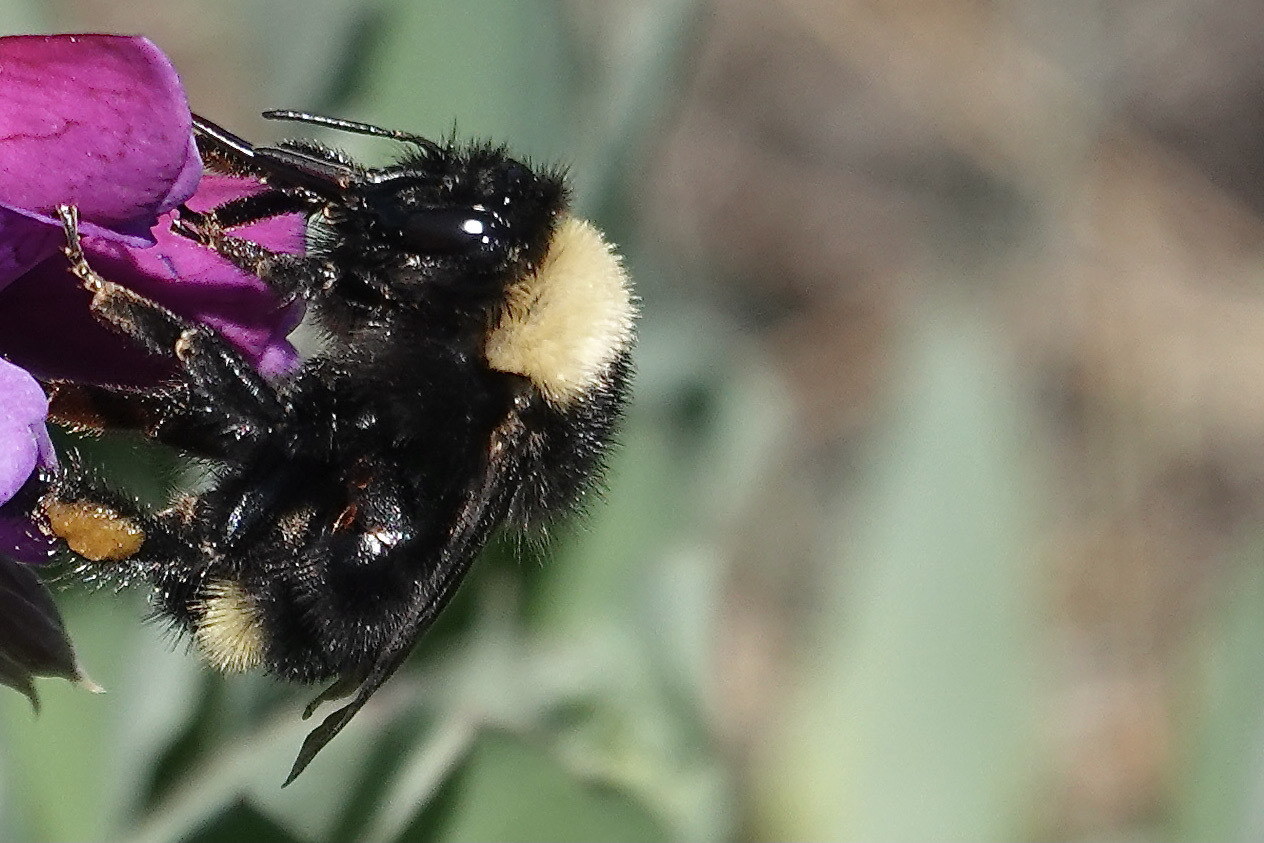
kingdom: Animalia
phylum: Arthropoda
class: Insecta
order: Hymenoptera
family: Apidae
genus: Bombus
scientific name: Bombus californicus
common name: California bumble bee
